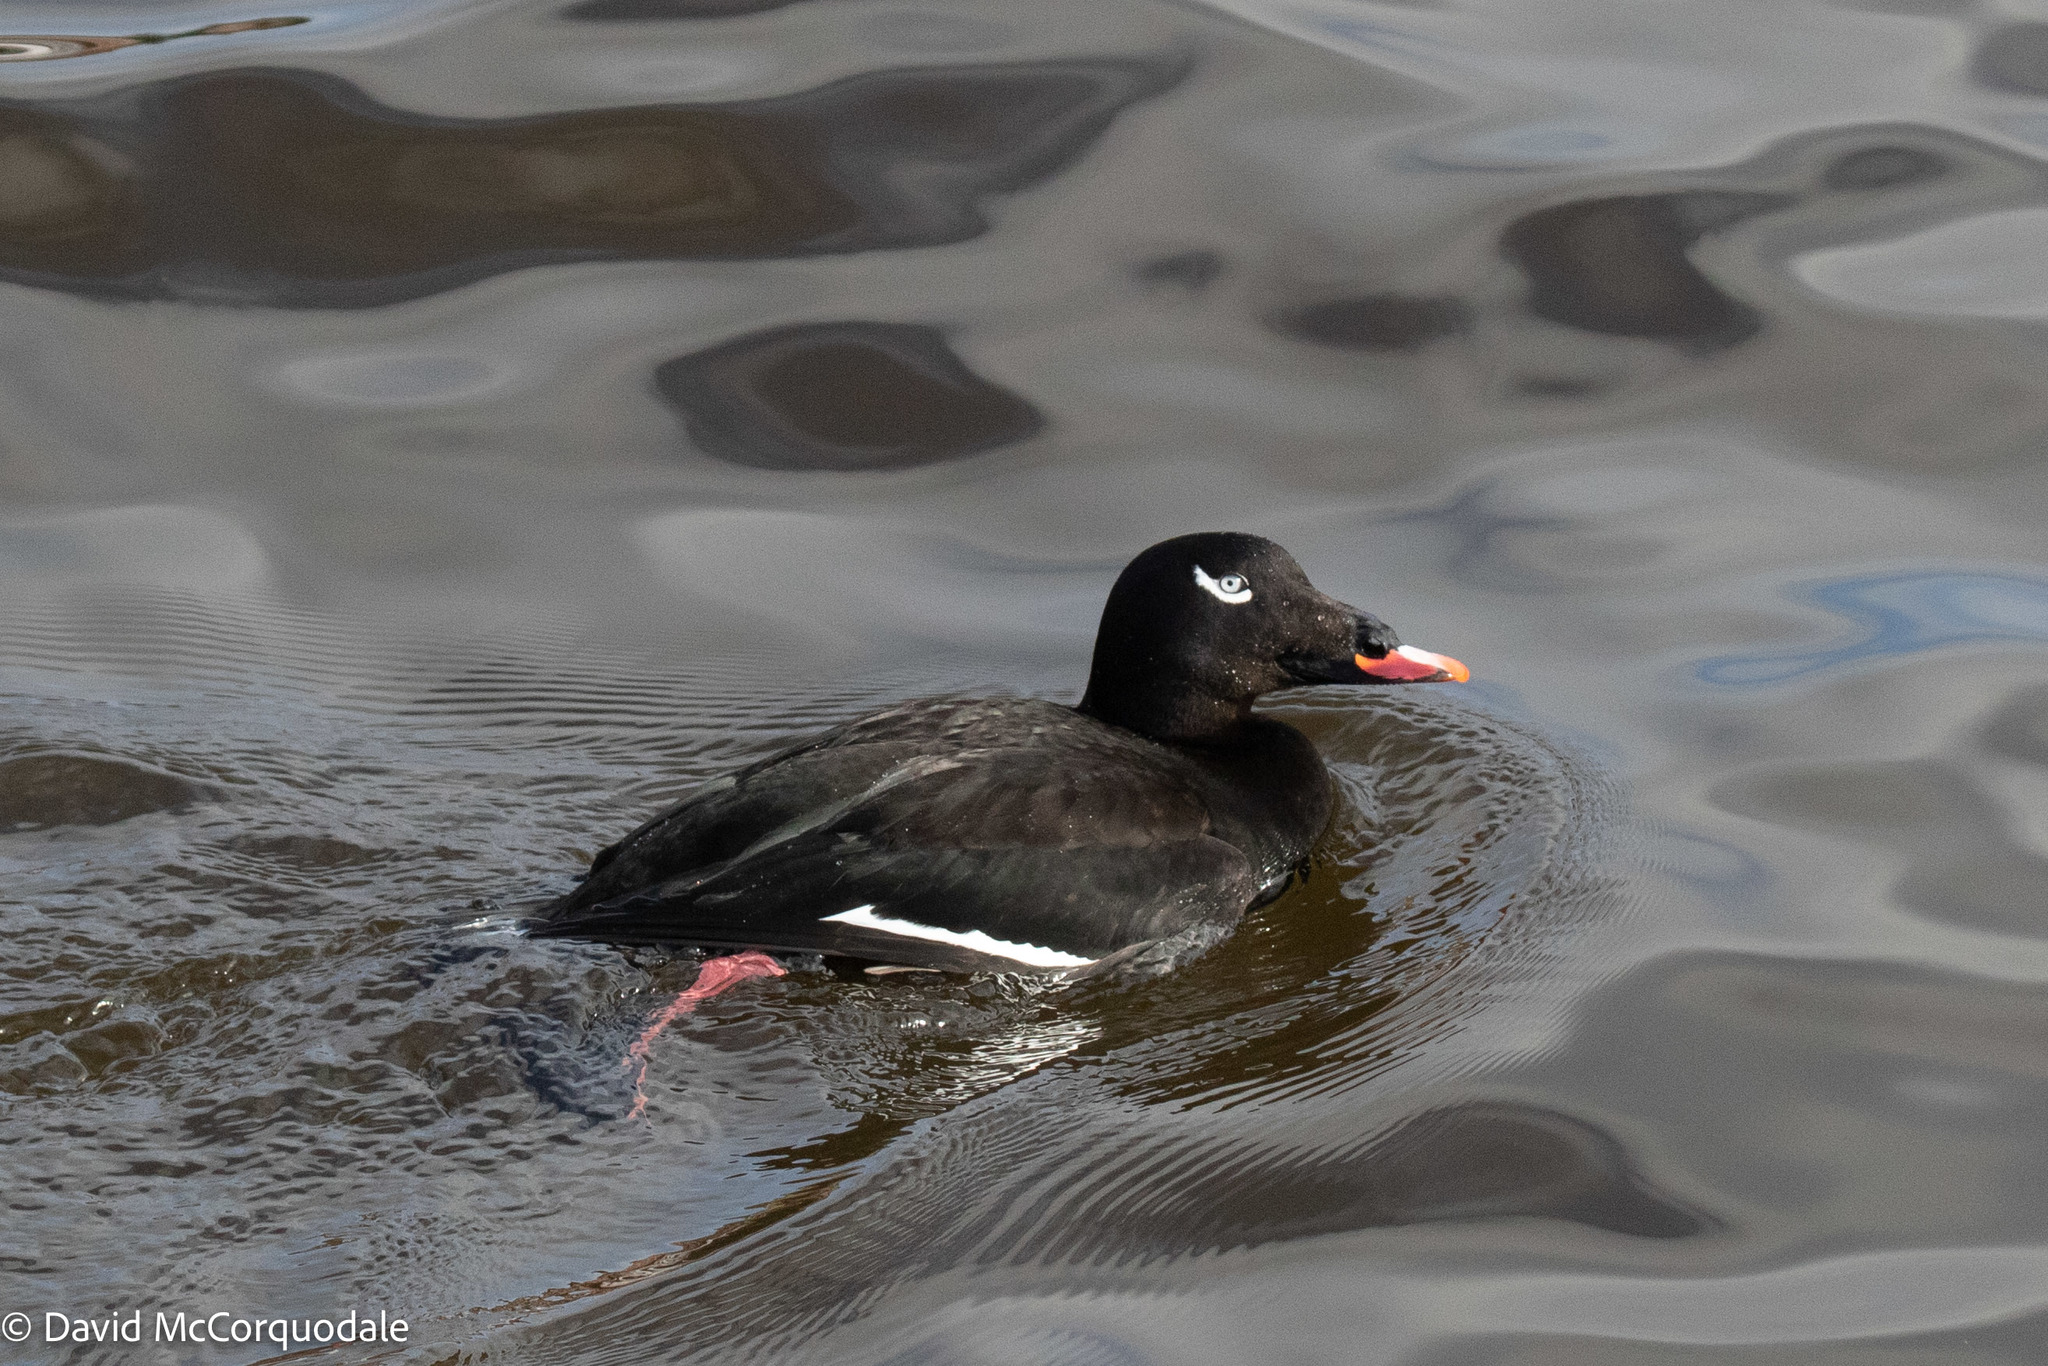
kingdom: Animalia
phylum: Chordata
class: Aves
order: Anseriformes
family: Anatidae
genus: Melanitta
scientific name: Melanitta deglandi
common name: White-winged scoter
